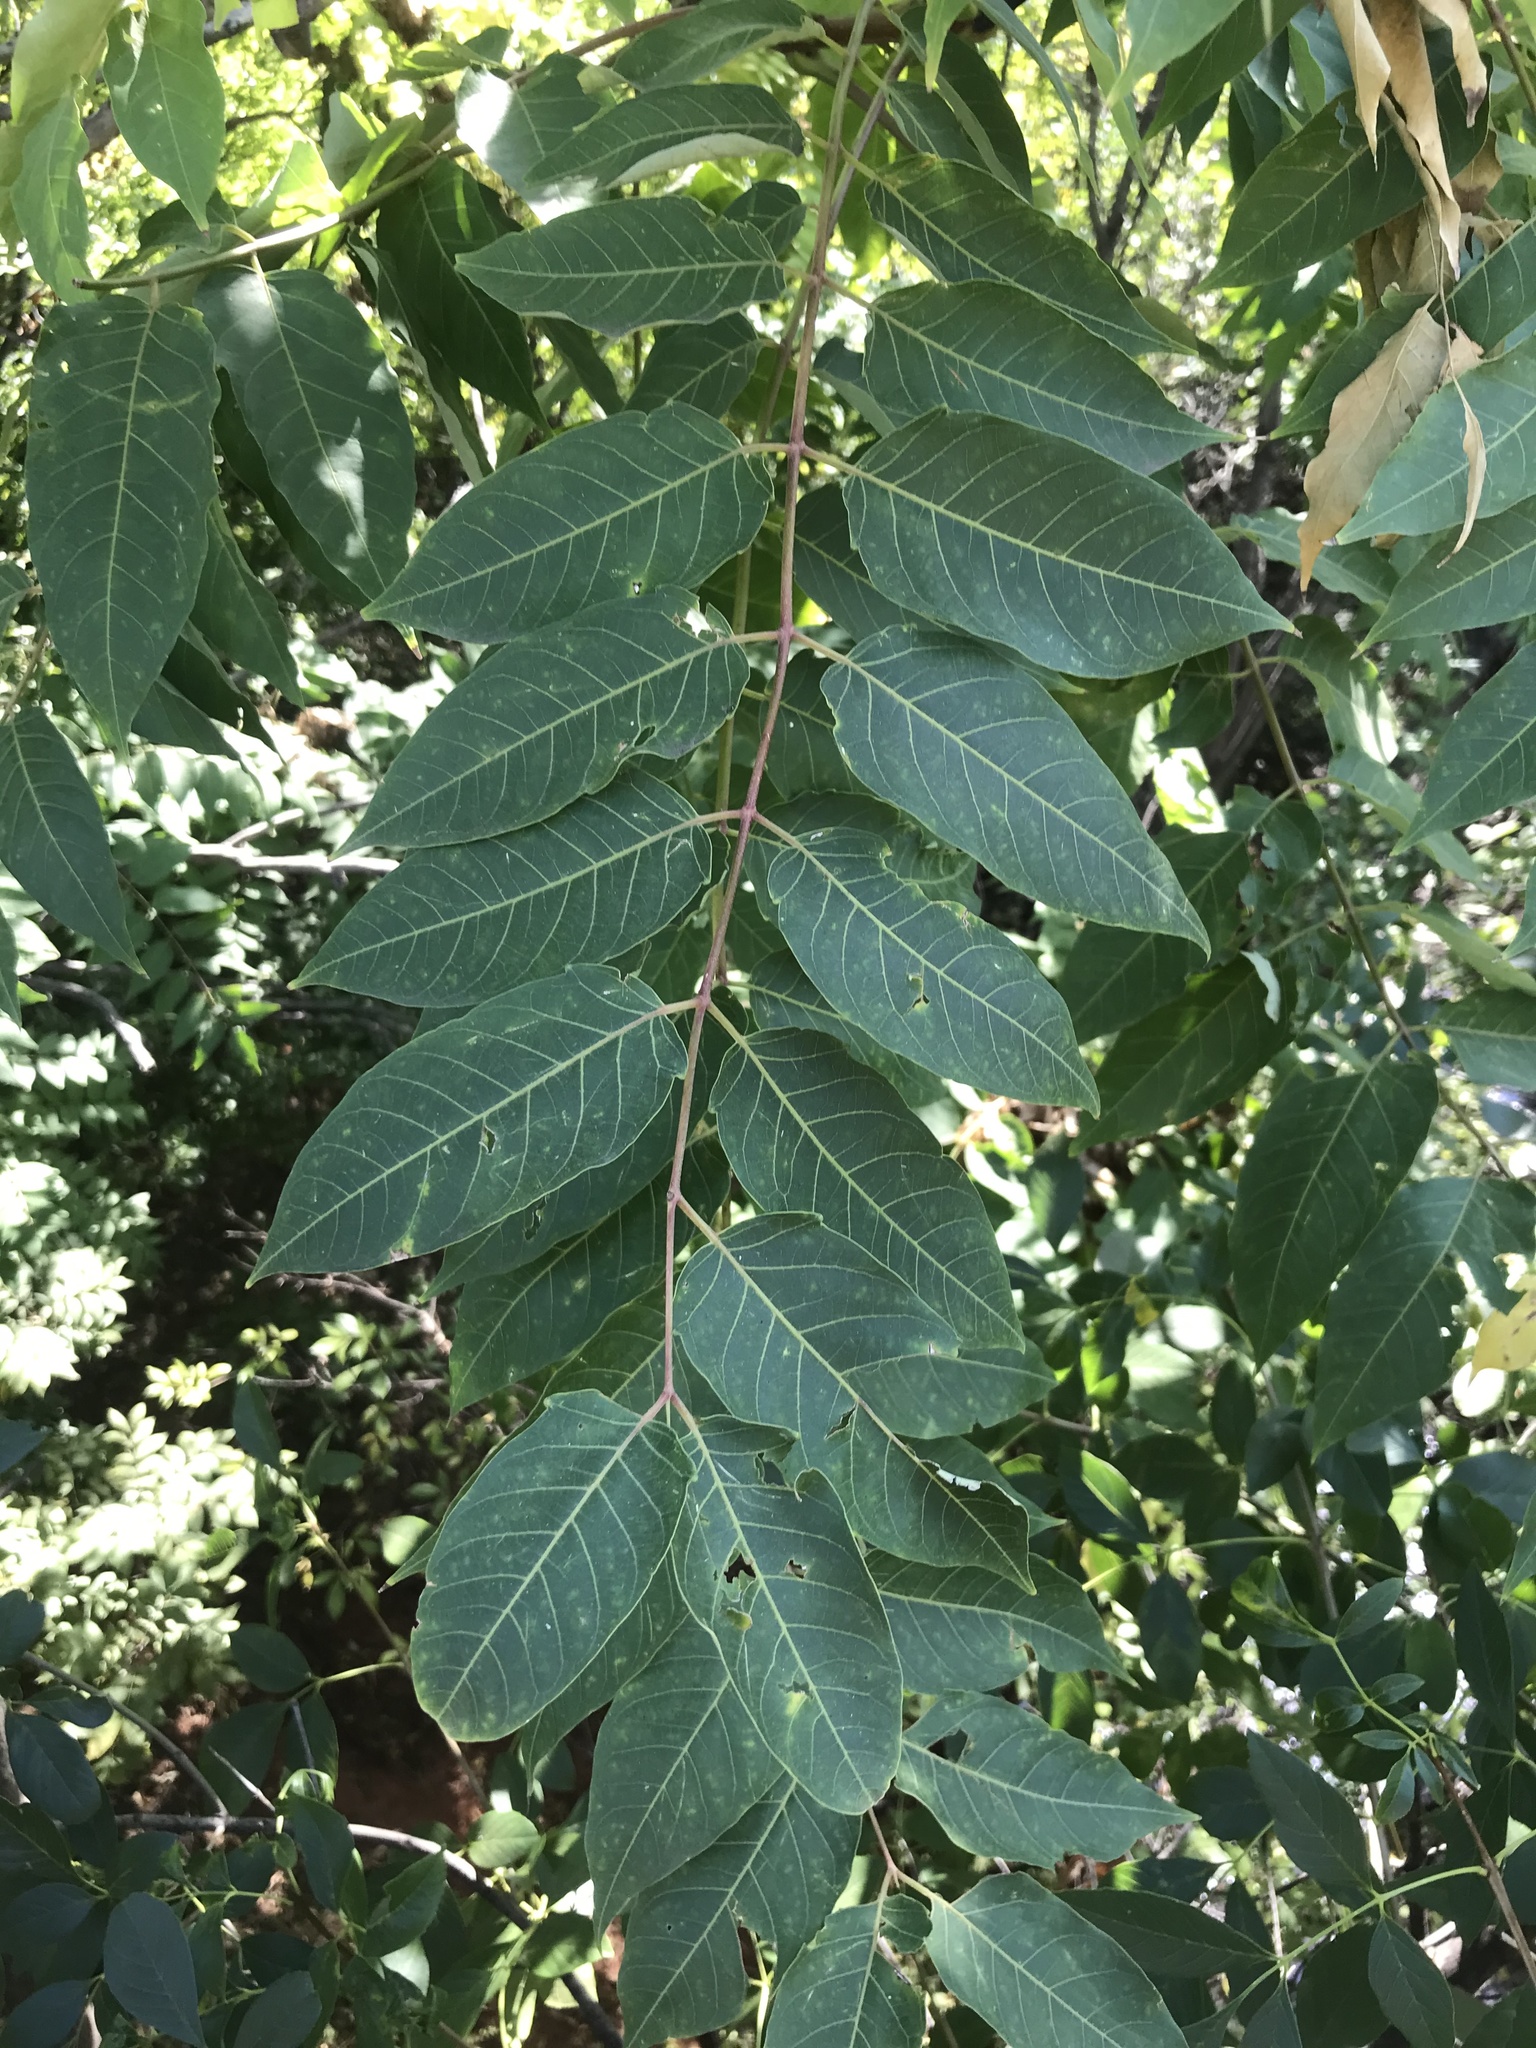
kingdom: Plantae
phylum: Tracheophyta
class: Magnoliopsida
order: Sapindales
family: Simaroubaceae
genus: Ailanthus
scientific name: Ailanthus altissima
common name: Tree-of-heaven
